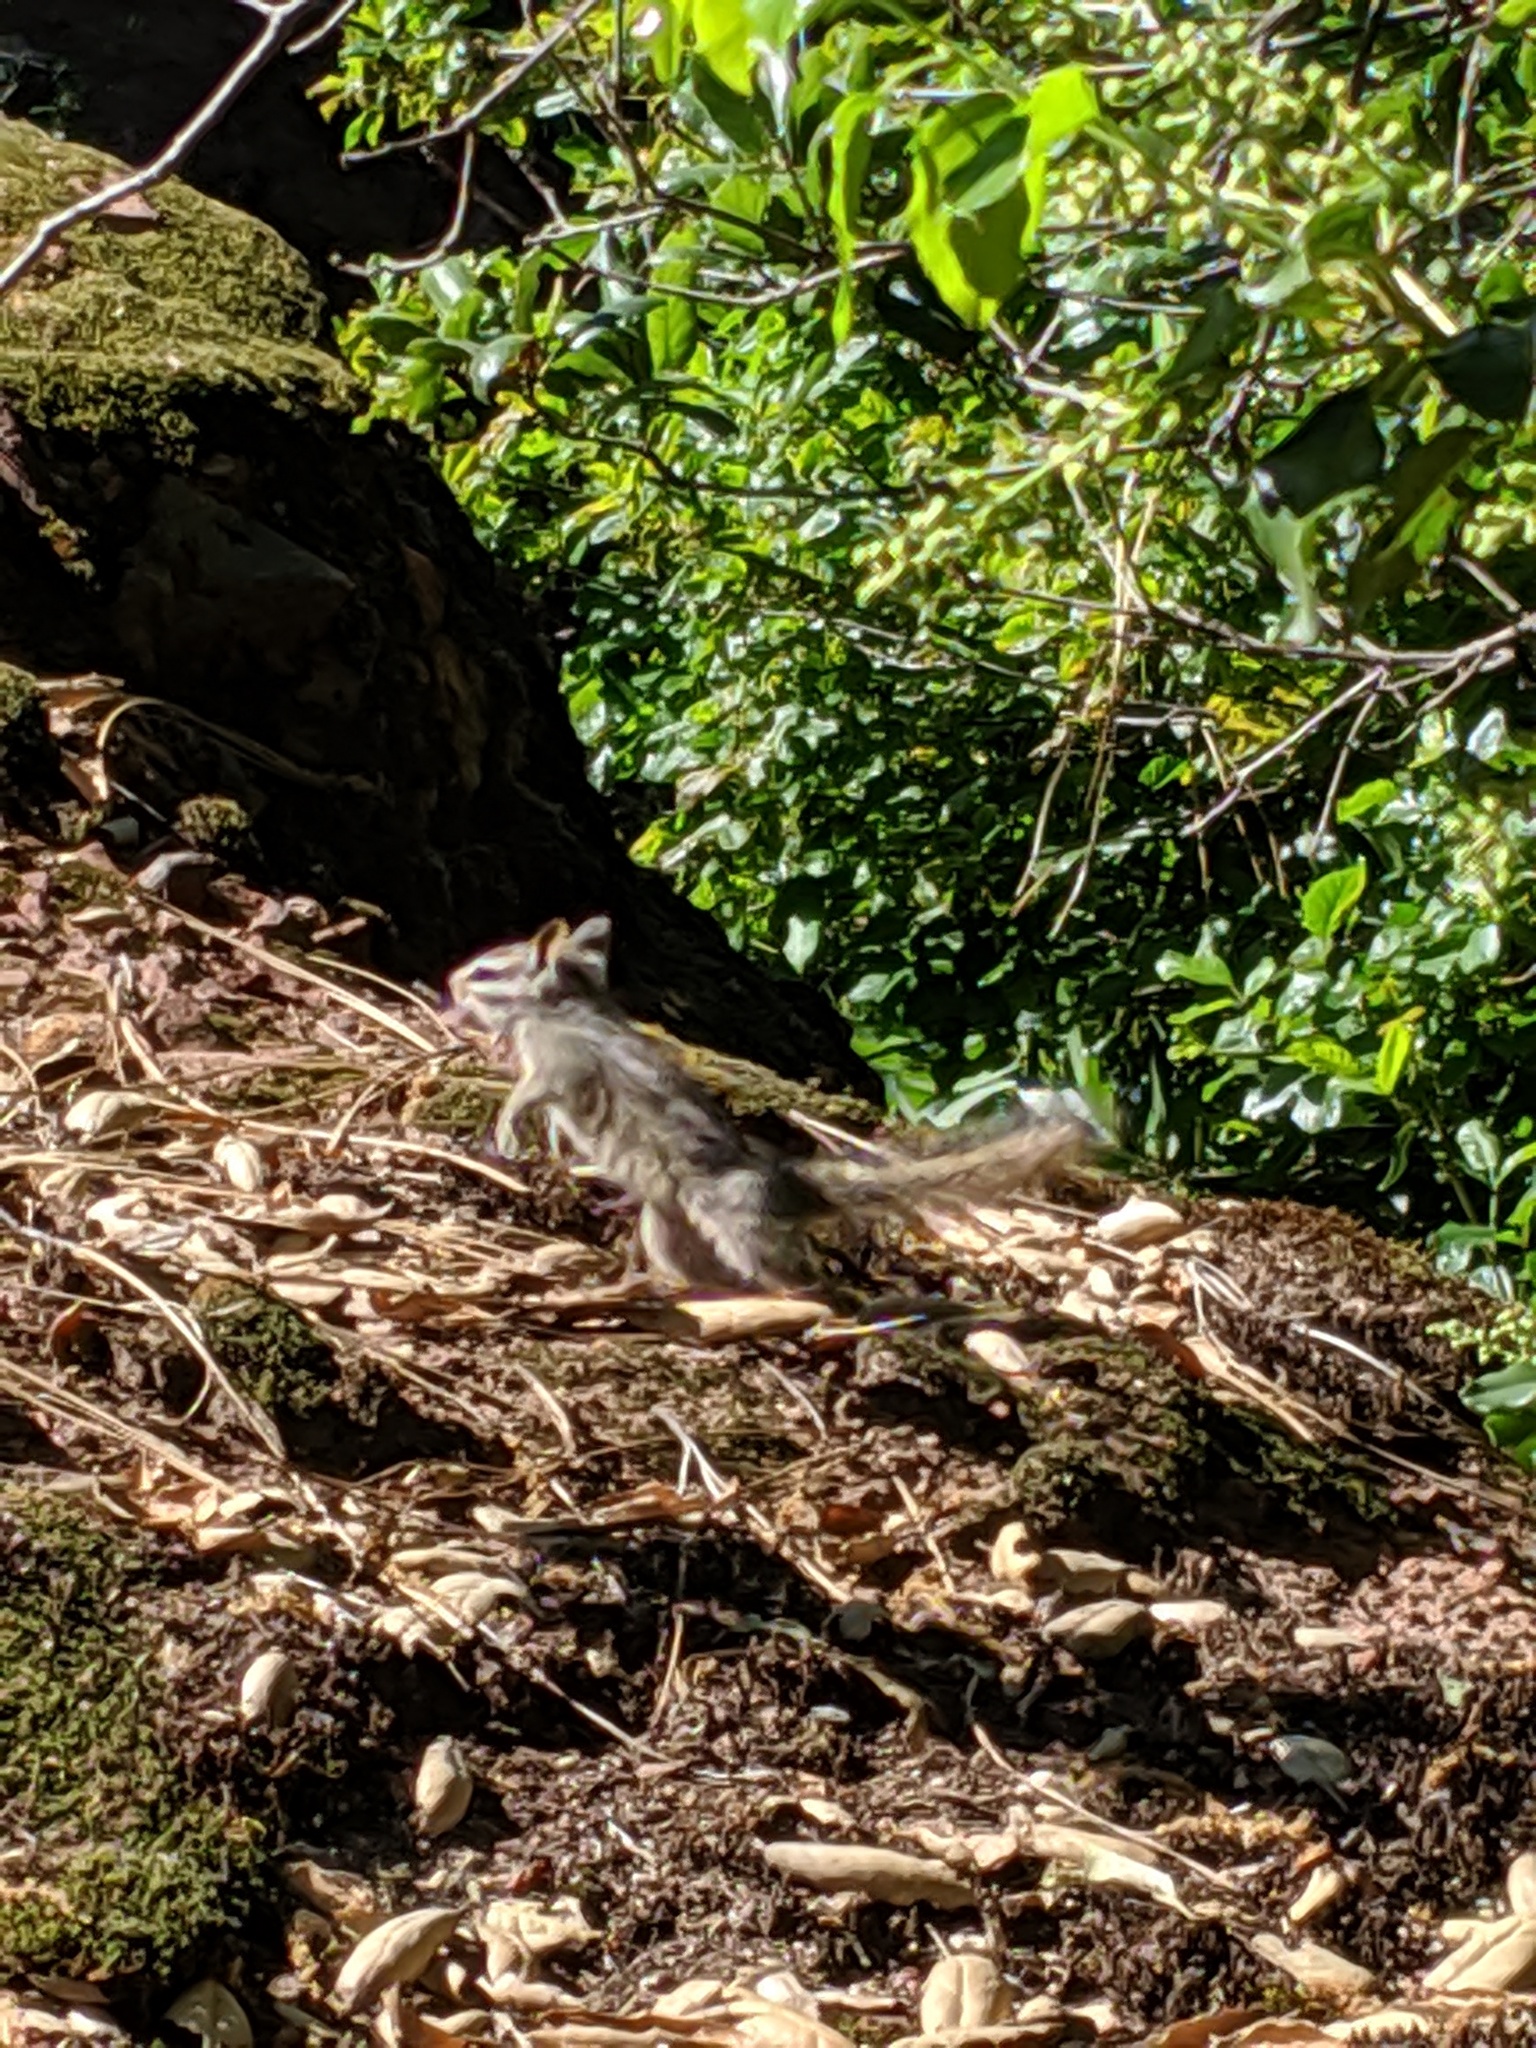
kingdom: Animalia
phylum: Chordata
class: Mammalia
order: Rodentia
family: Sciuridae
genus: Tamias
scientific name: Tamias merriami
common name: Merriam's chipmunk
